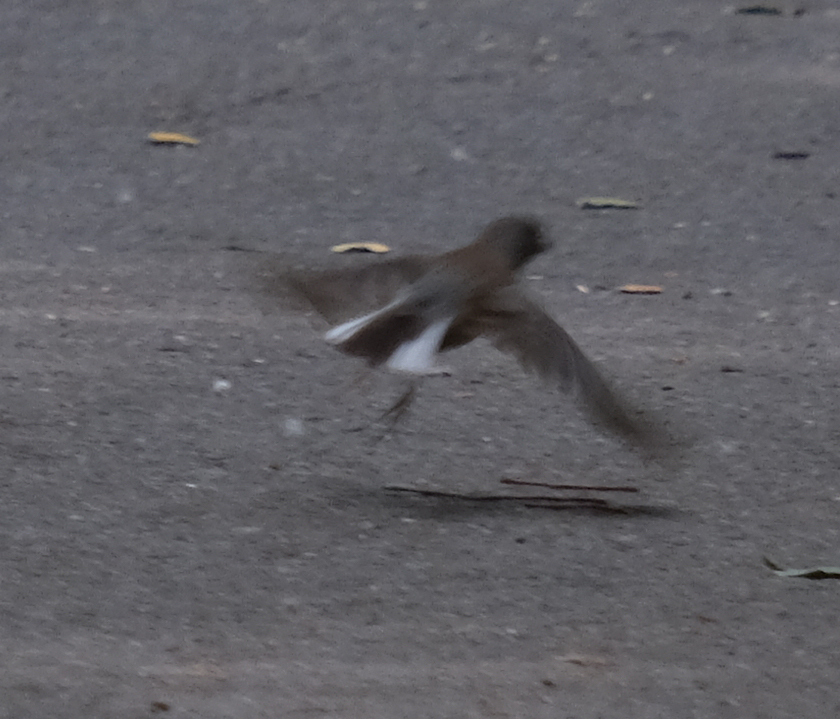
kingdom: Animalia
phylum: Chordata
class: Aves
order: Passeriformes
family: Passerellidae
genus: Junco
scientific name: Junco hyemalis
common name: Dark-eyed junco
